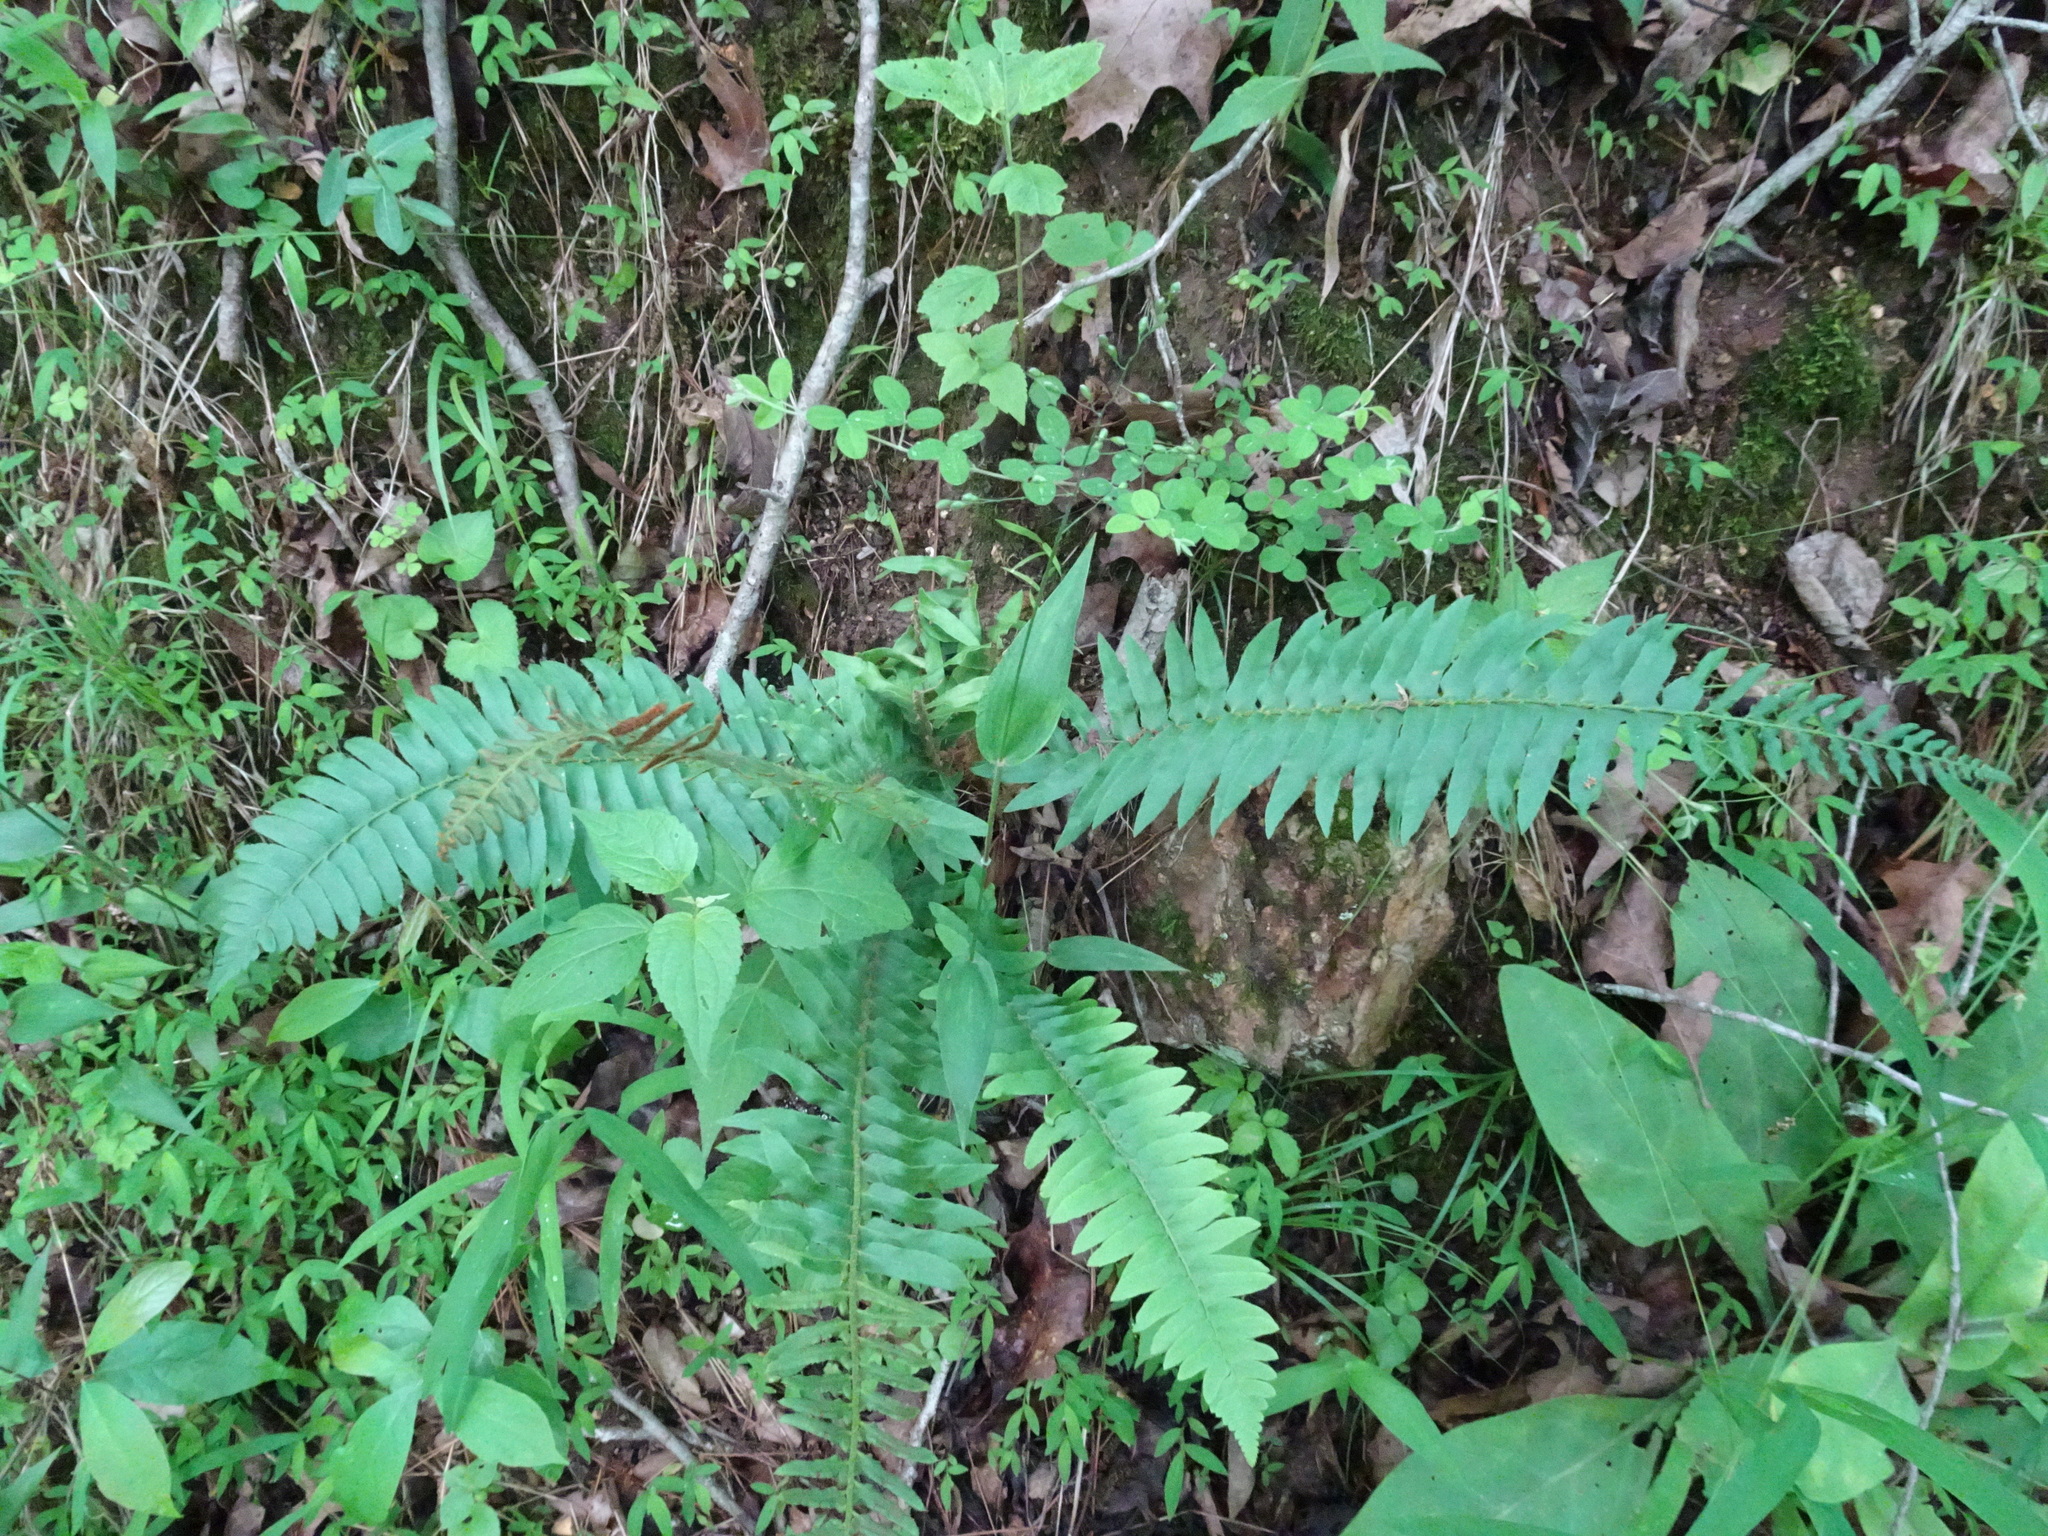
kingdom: Plantae
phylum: Tracheophyta
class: Polypodiopsida
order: Polypodiales
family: Dryopteridaceae
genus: Polystichum
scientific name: Polystichum acrostichoides
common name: Christmas fern
